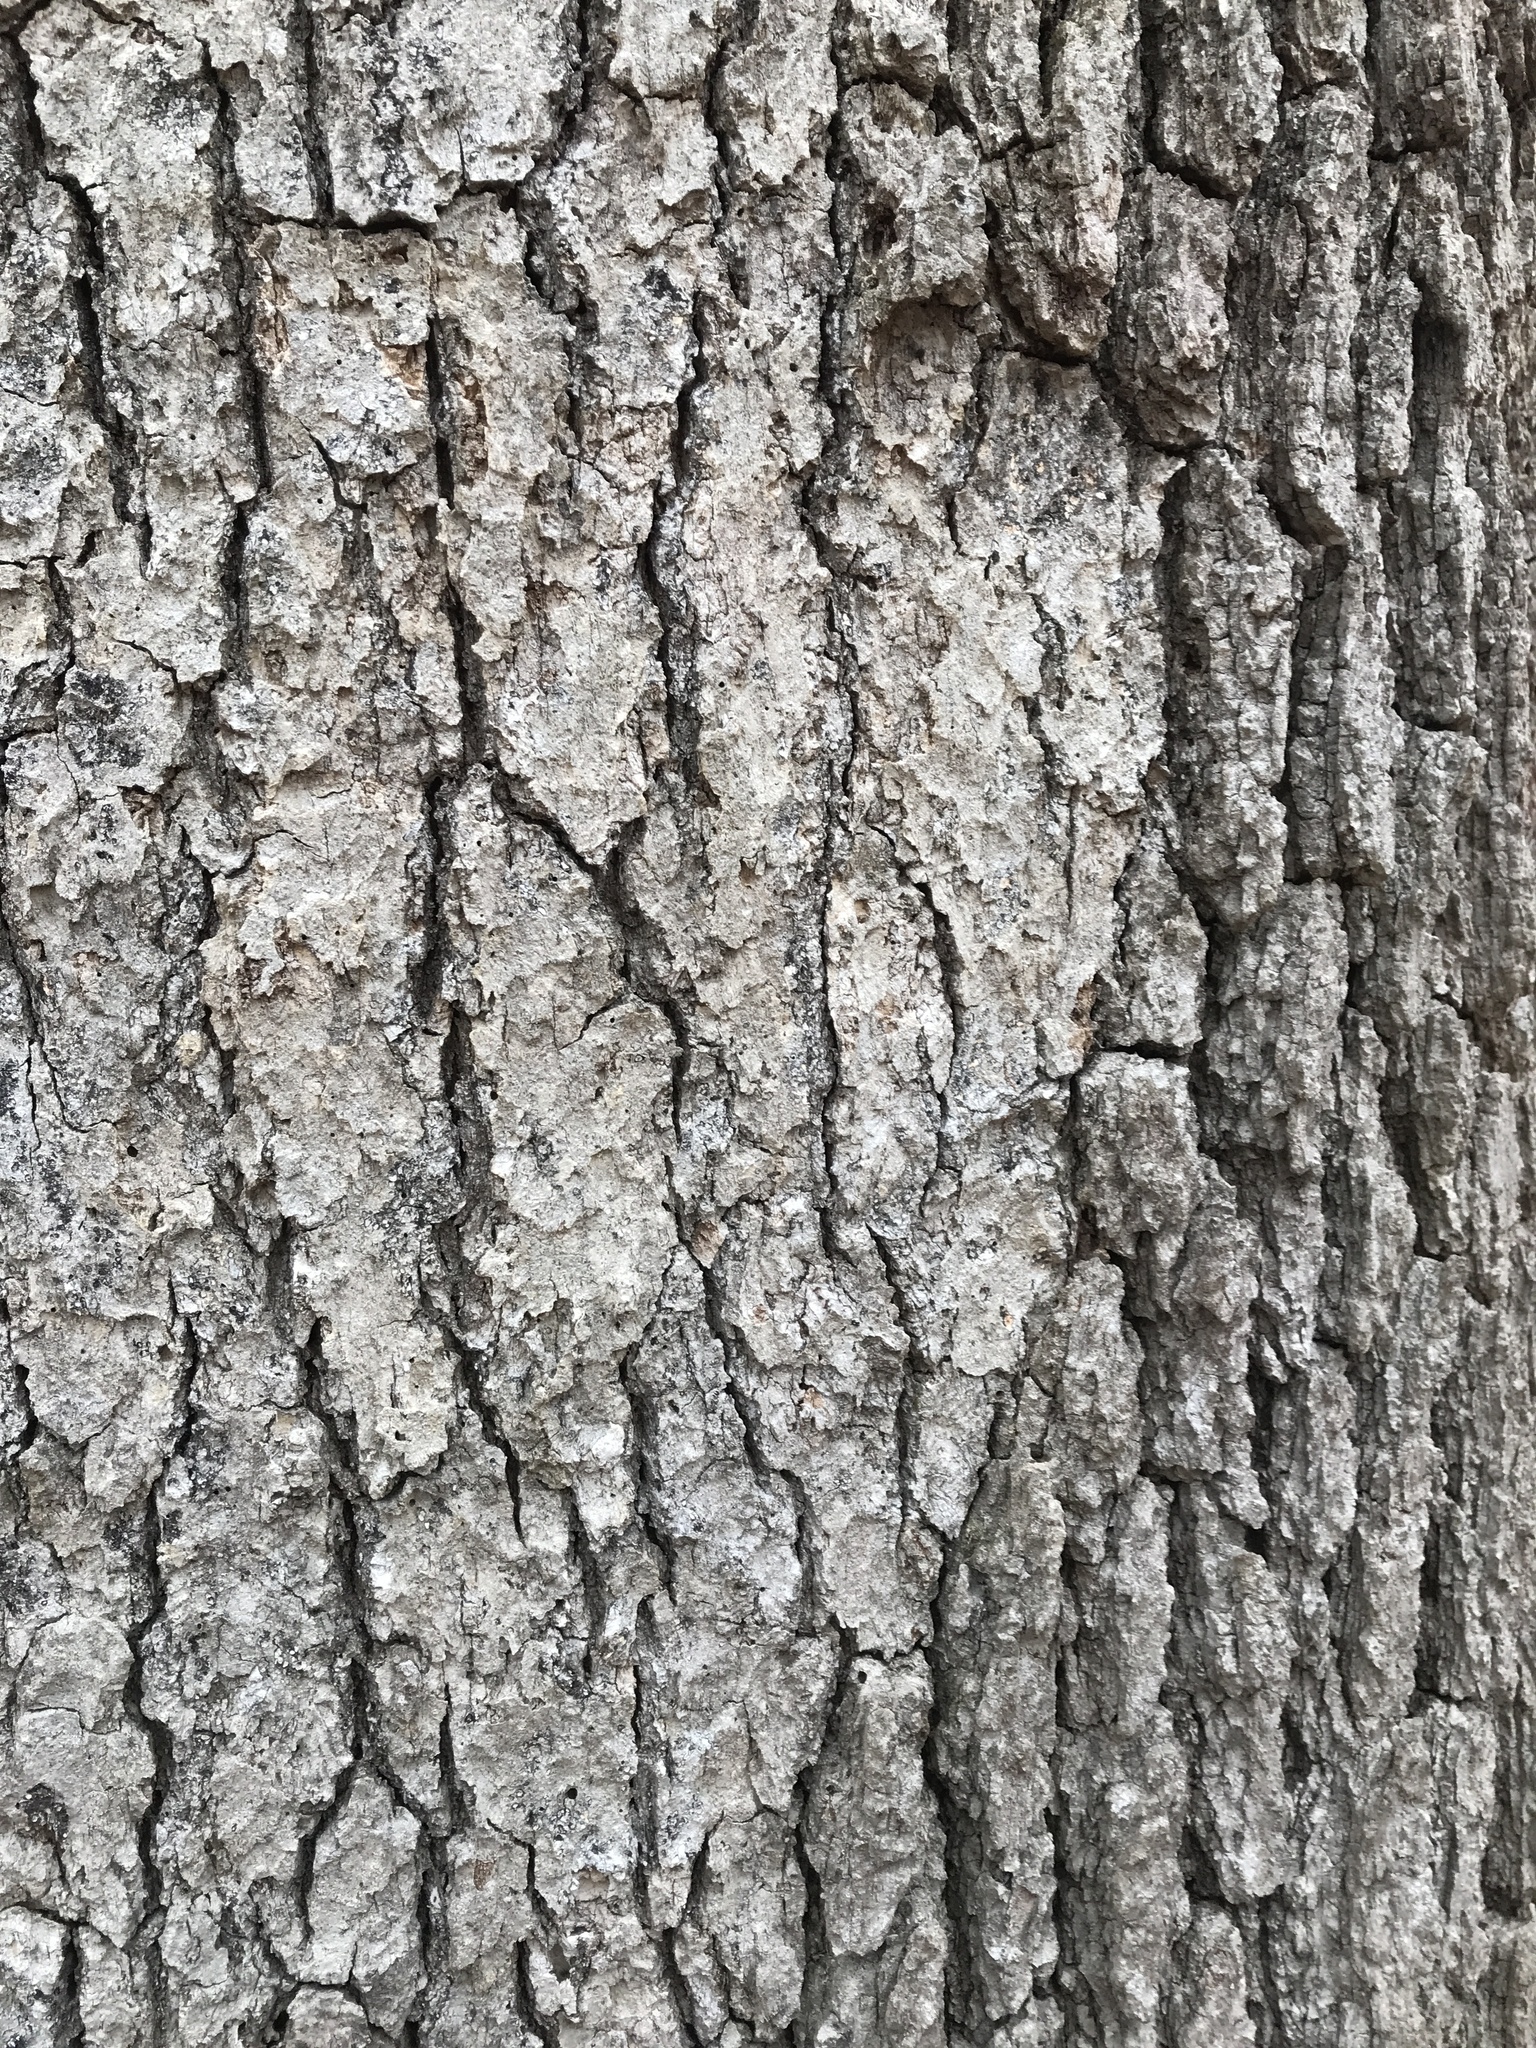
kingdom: Fungi
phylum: Basidiomycota
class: Agaricomycetes
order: Russulales
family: Stereaceae
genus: Acanthophysium
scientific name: Acanthophysium oakesii
